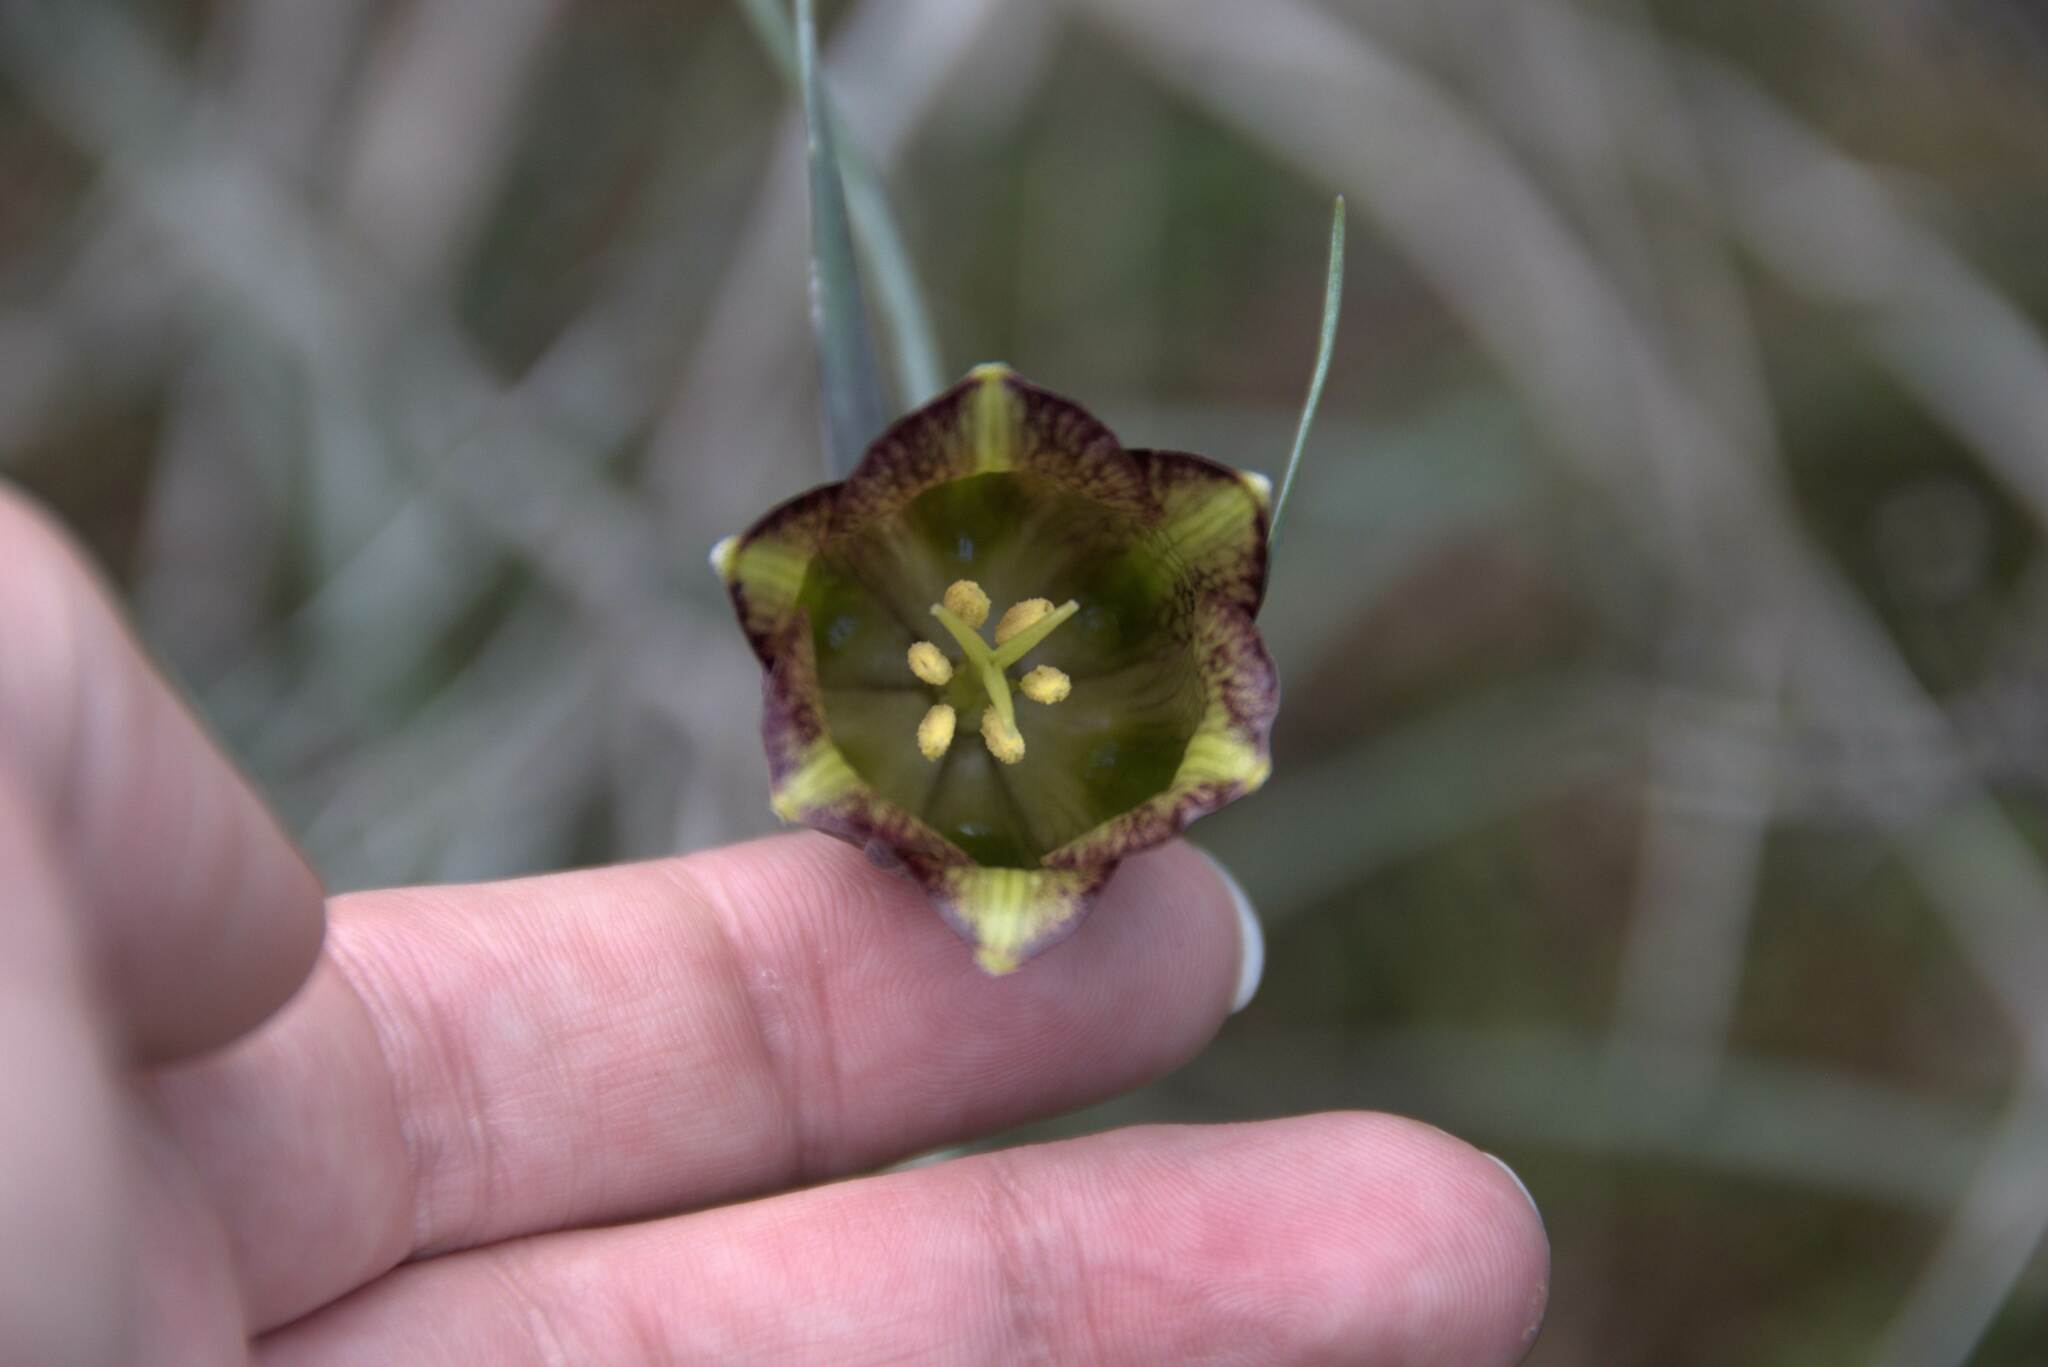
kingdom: Plantae
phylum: Tracheophyta
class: Liliopsida
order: Liliales
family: Liliaceae
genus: Fritillaria
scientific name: Fritillaria messanensis
